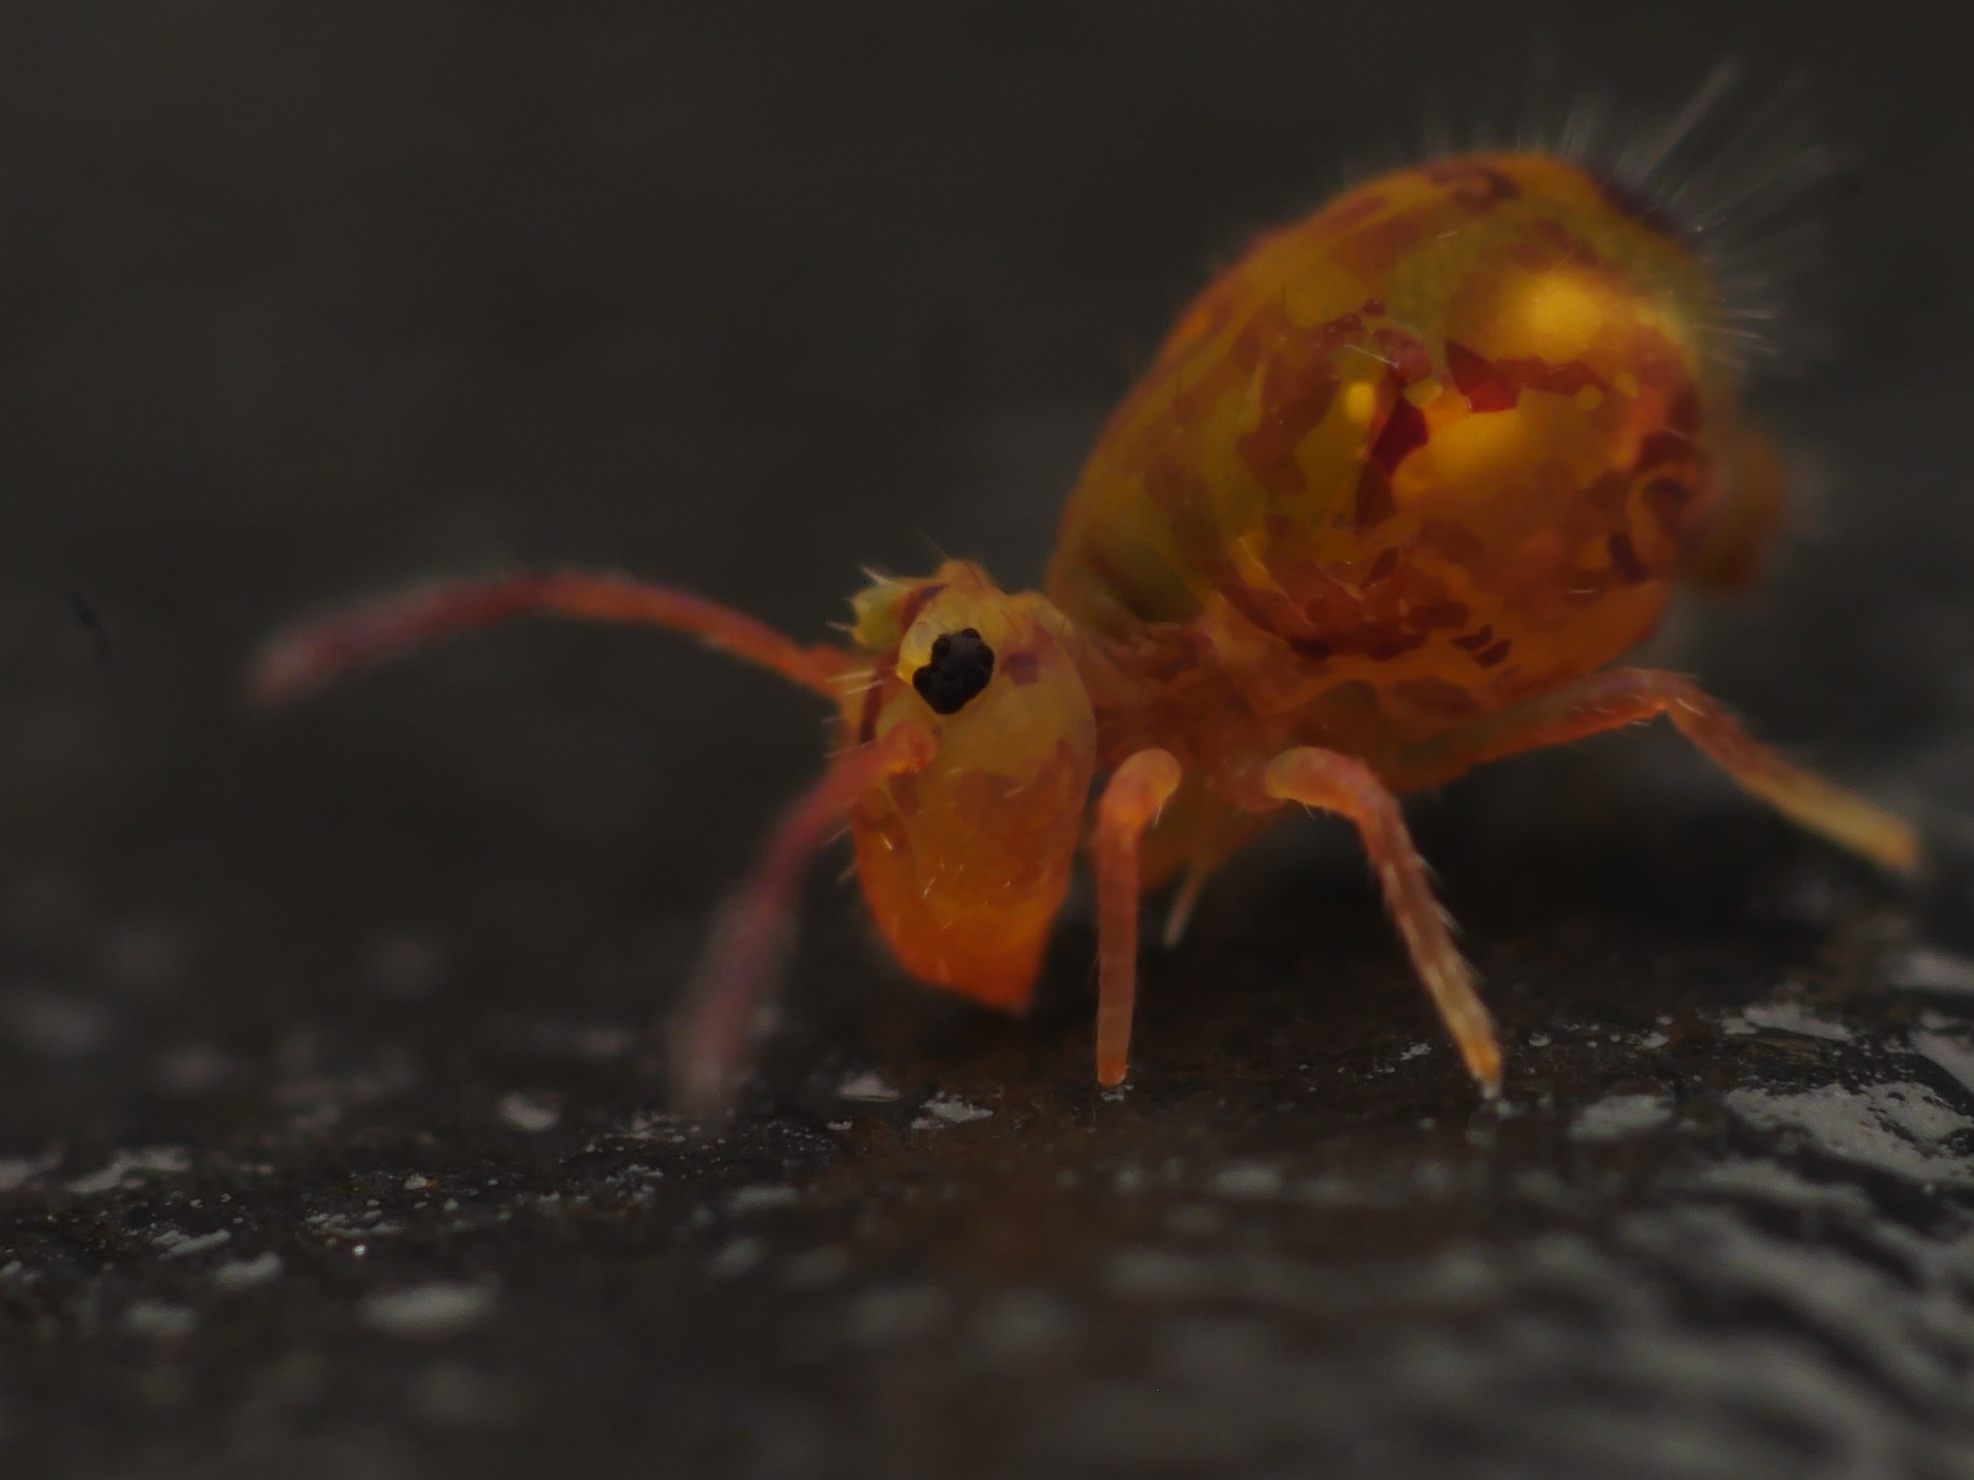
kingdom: Animalia
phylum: Arthropoda
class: Collembola
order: Symphypleona
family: Dicyrtomidae
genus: Dicyrtomina
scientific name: Dicyrtomina ornata
